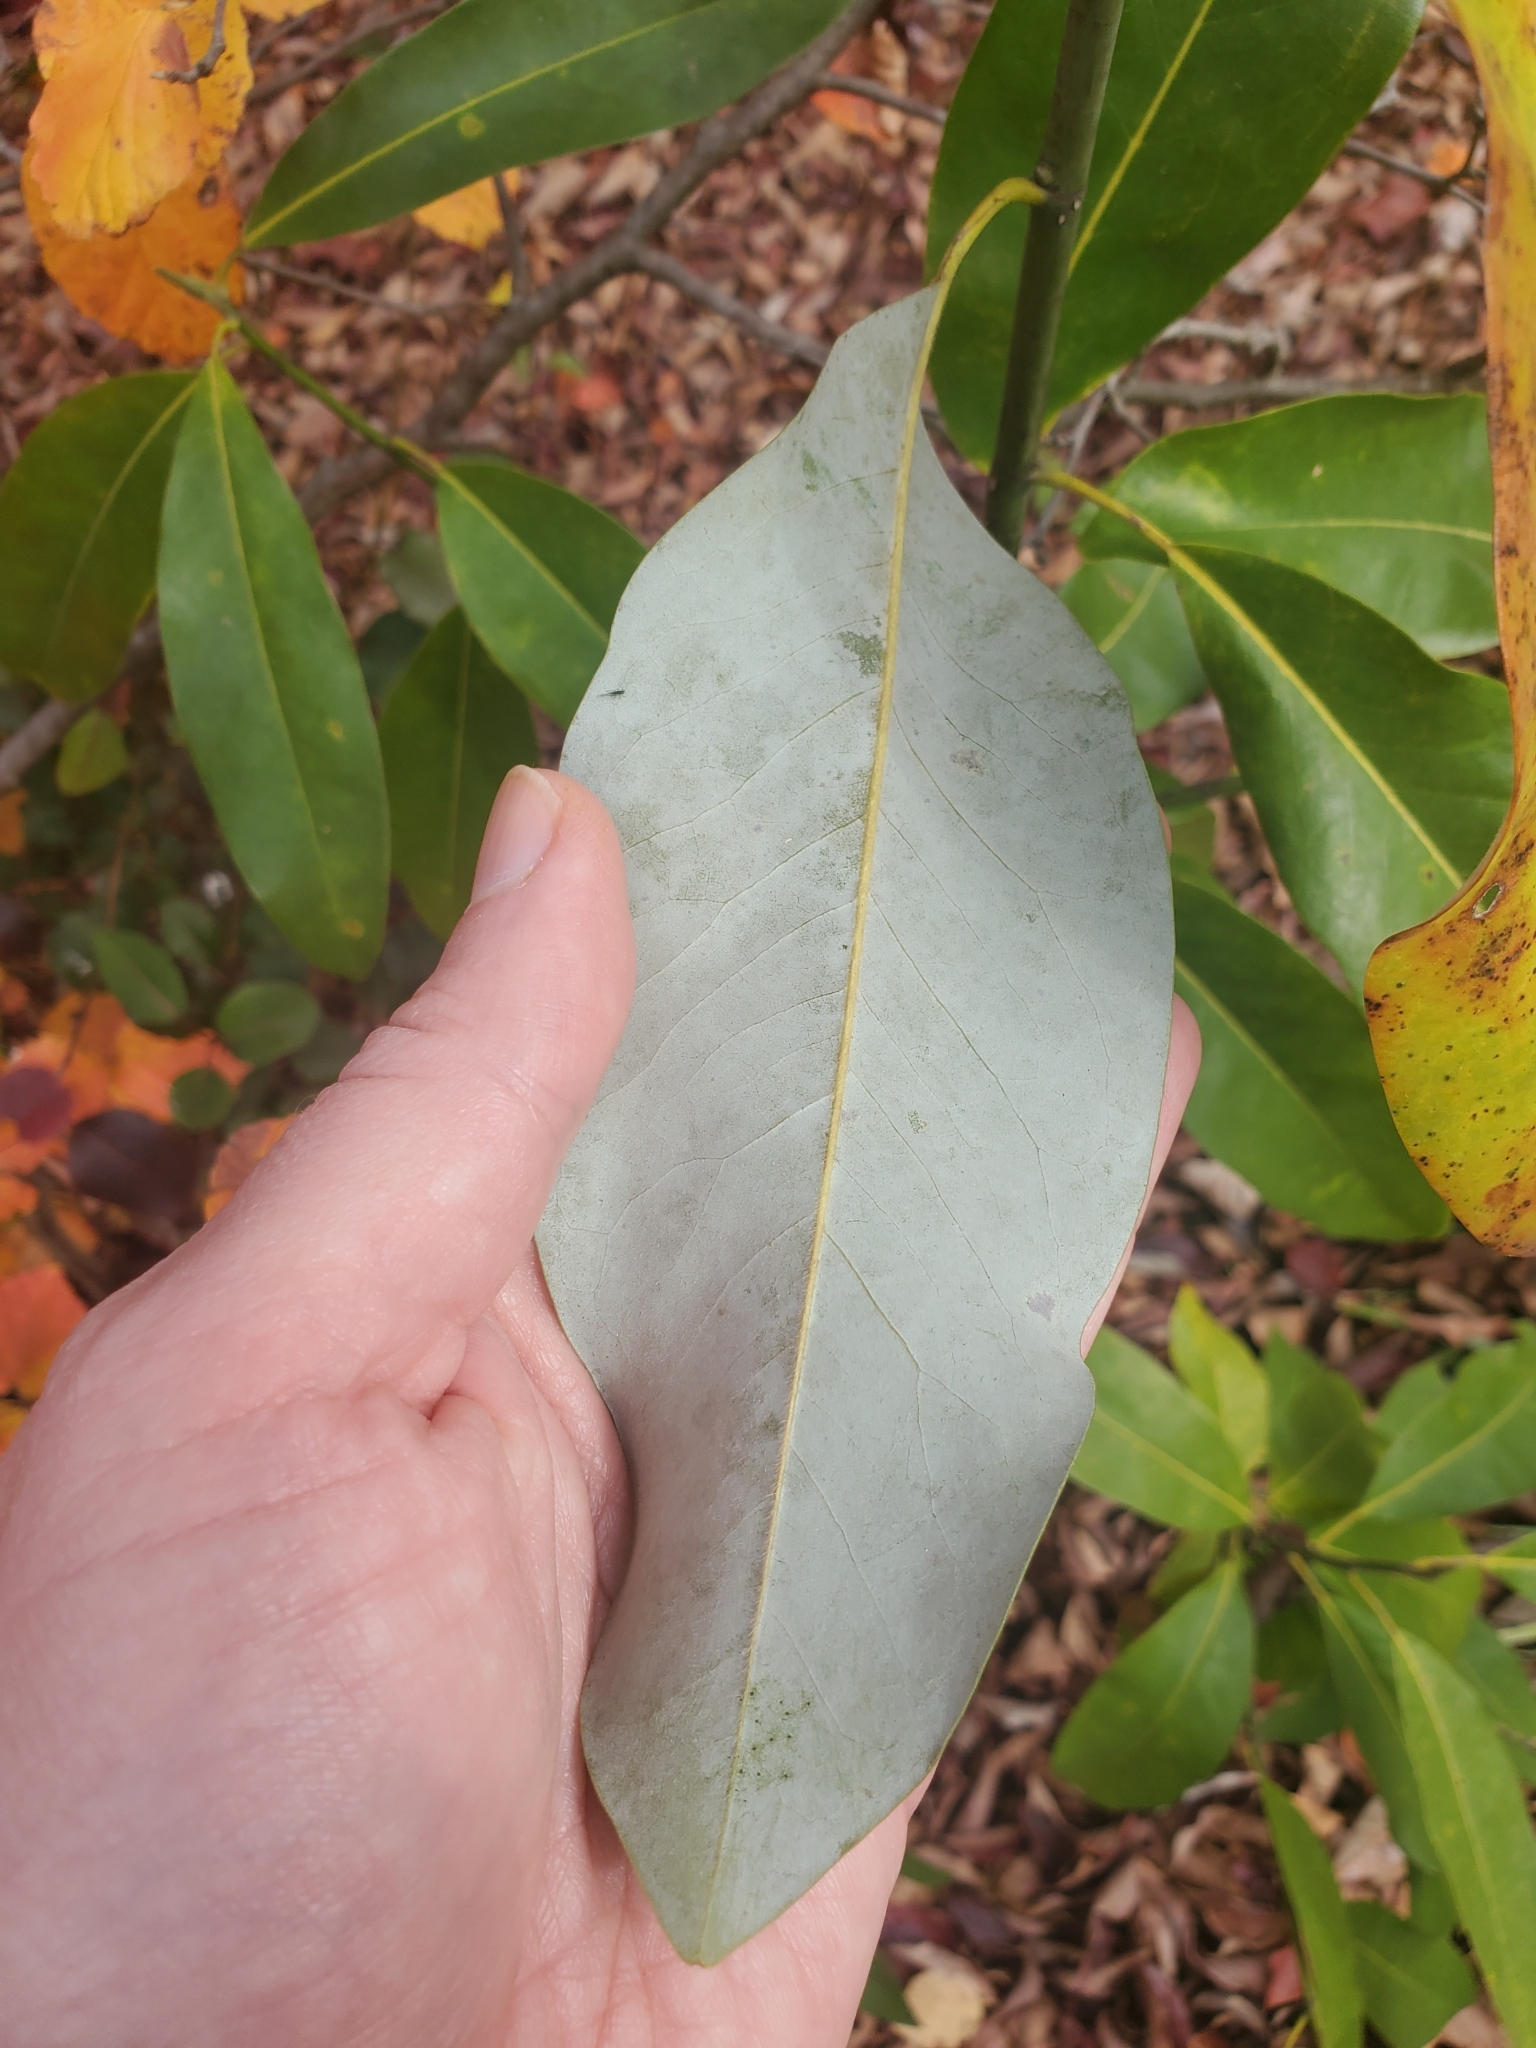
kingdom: Plantae
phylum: Tracheophyta
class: Magnoliopsida
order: Magnoliales
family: Magnoliaceae
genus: Magnolia
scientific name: Magnolia virginiana
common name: Swamp bay
